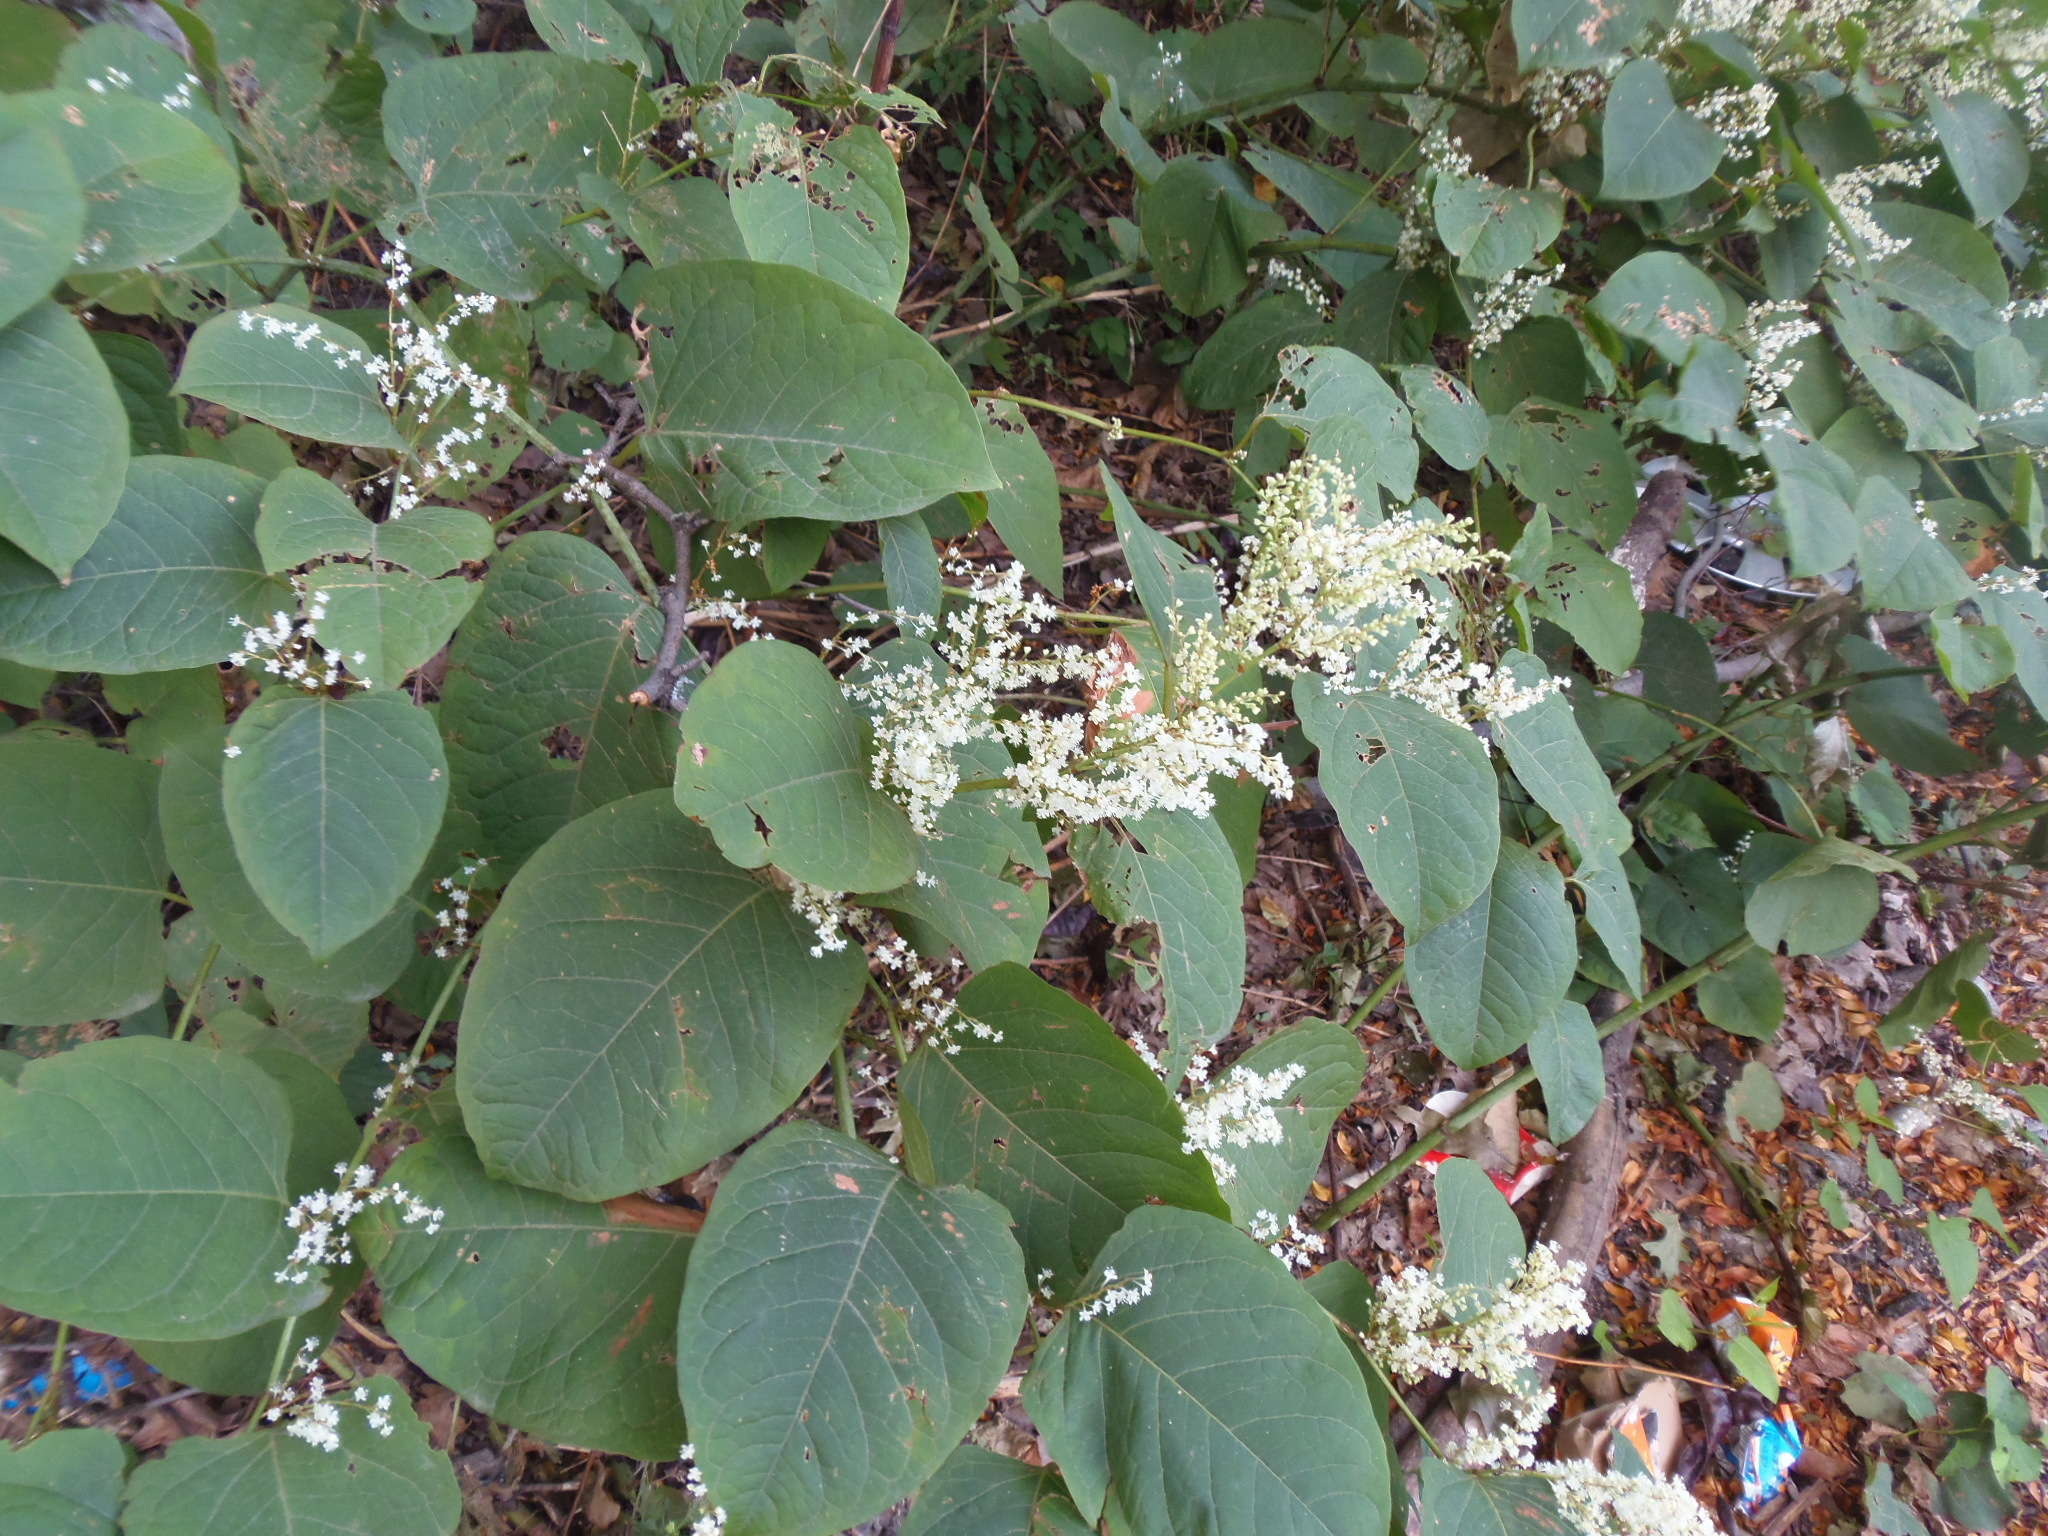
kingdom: Plantae
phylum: Tracheophyta
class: Magnoliopsida
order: Caryophyllales
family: Polygonaceae
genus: Reynoutria
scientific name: Reynoutria japonica
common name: Japanese knotweed
